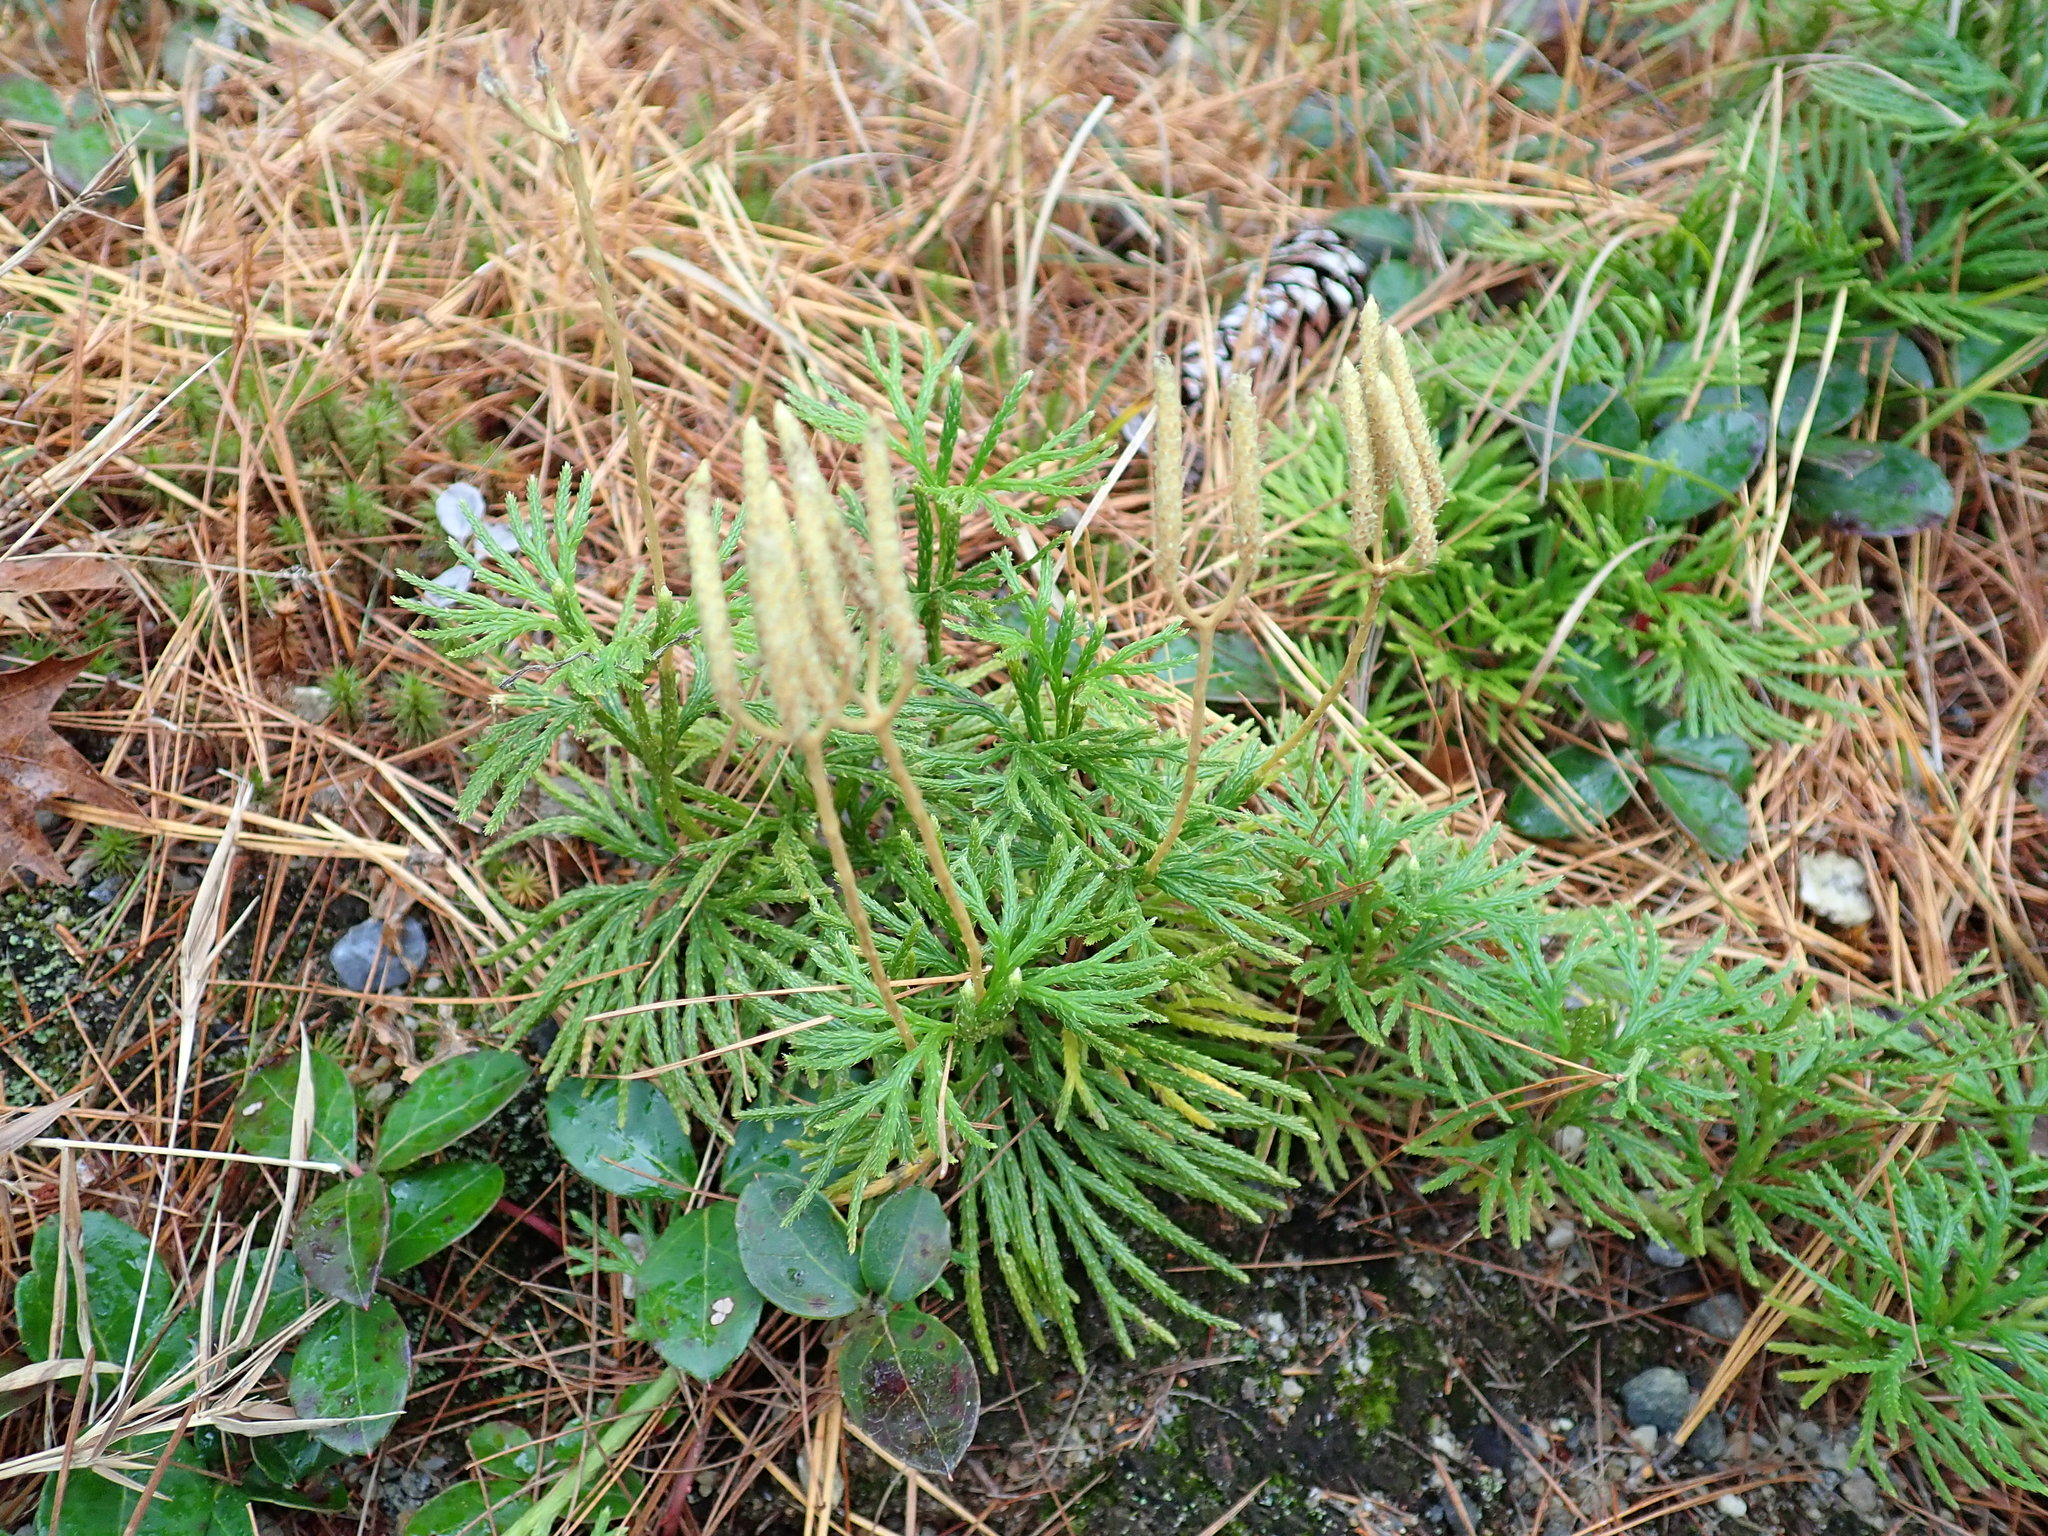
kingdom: Plantae
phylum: Tracheophyta
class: Lycopodiopsida
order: Lycopodiales
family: Lycopodiaceae
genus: Diphasiastrum
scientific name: Diphasiastrum digitatum
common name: Southern running-pine
